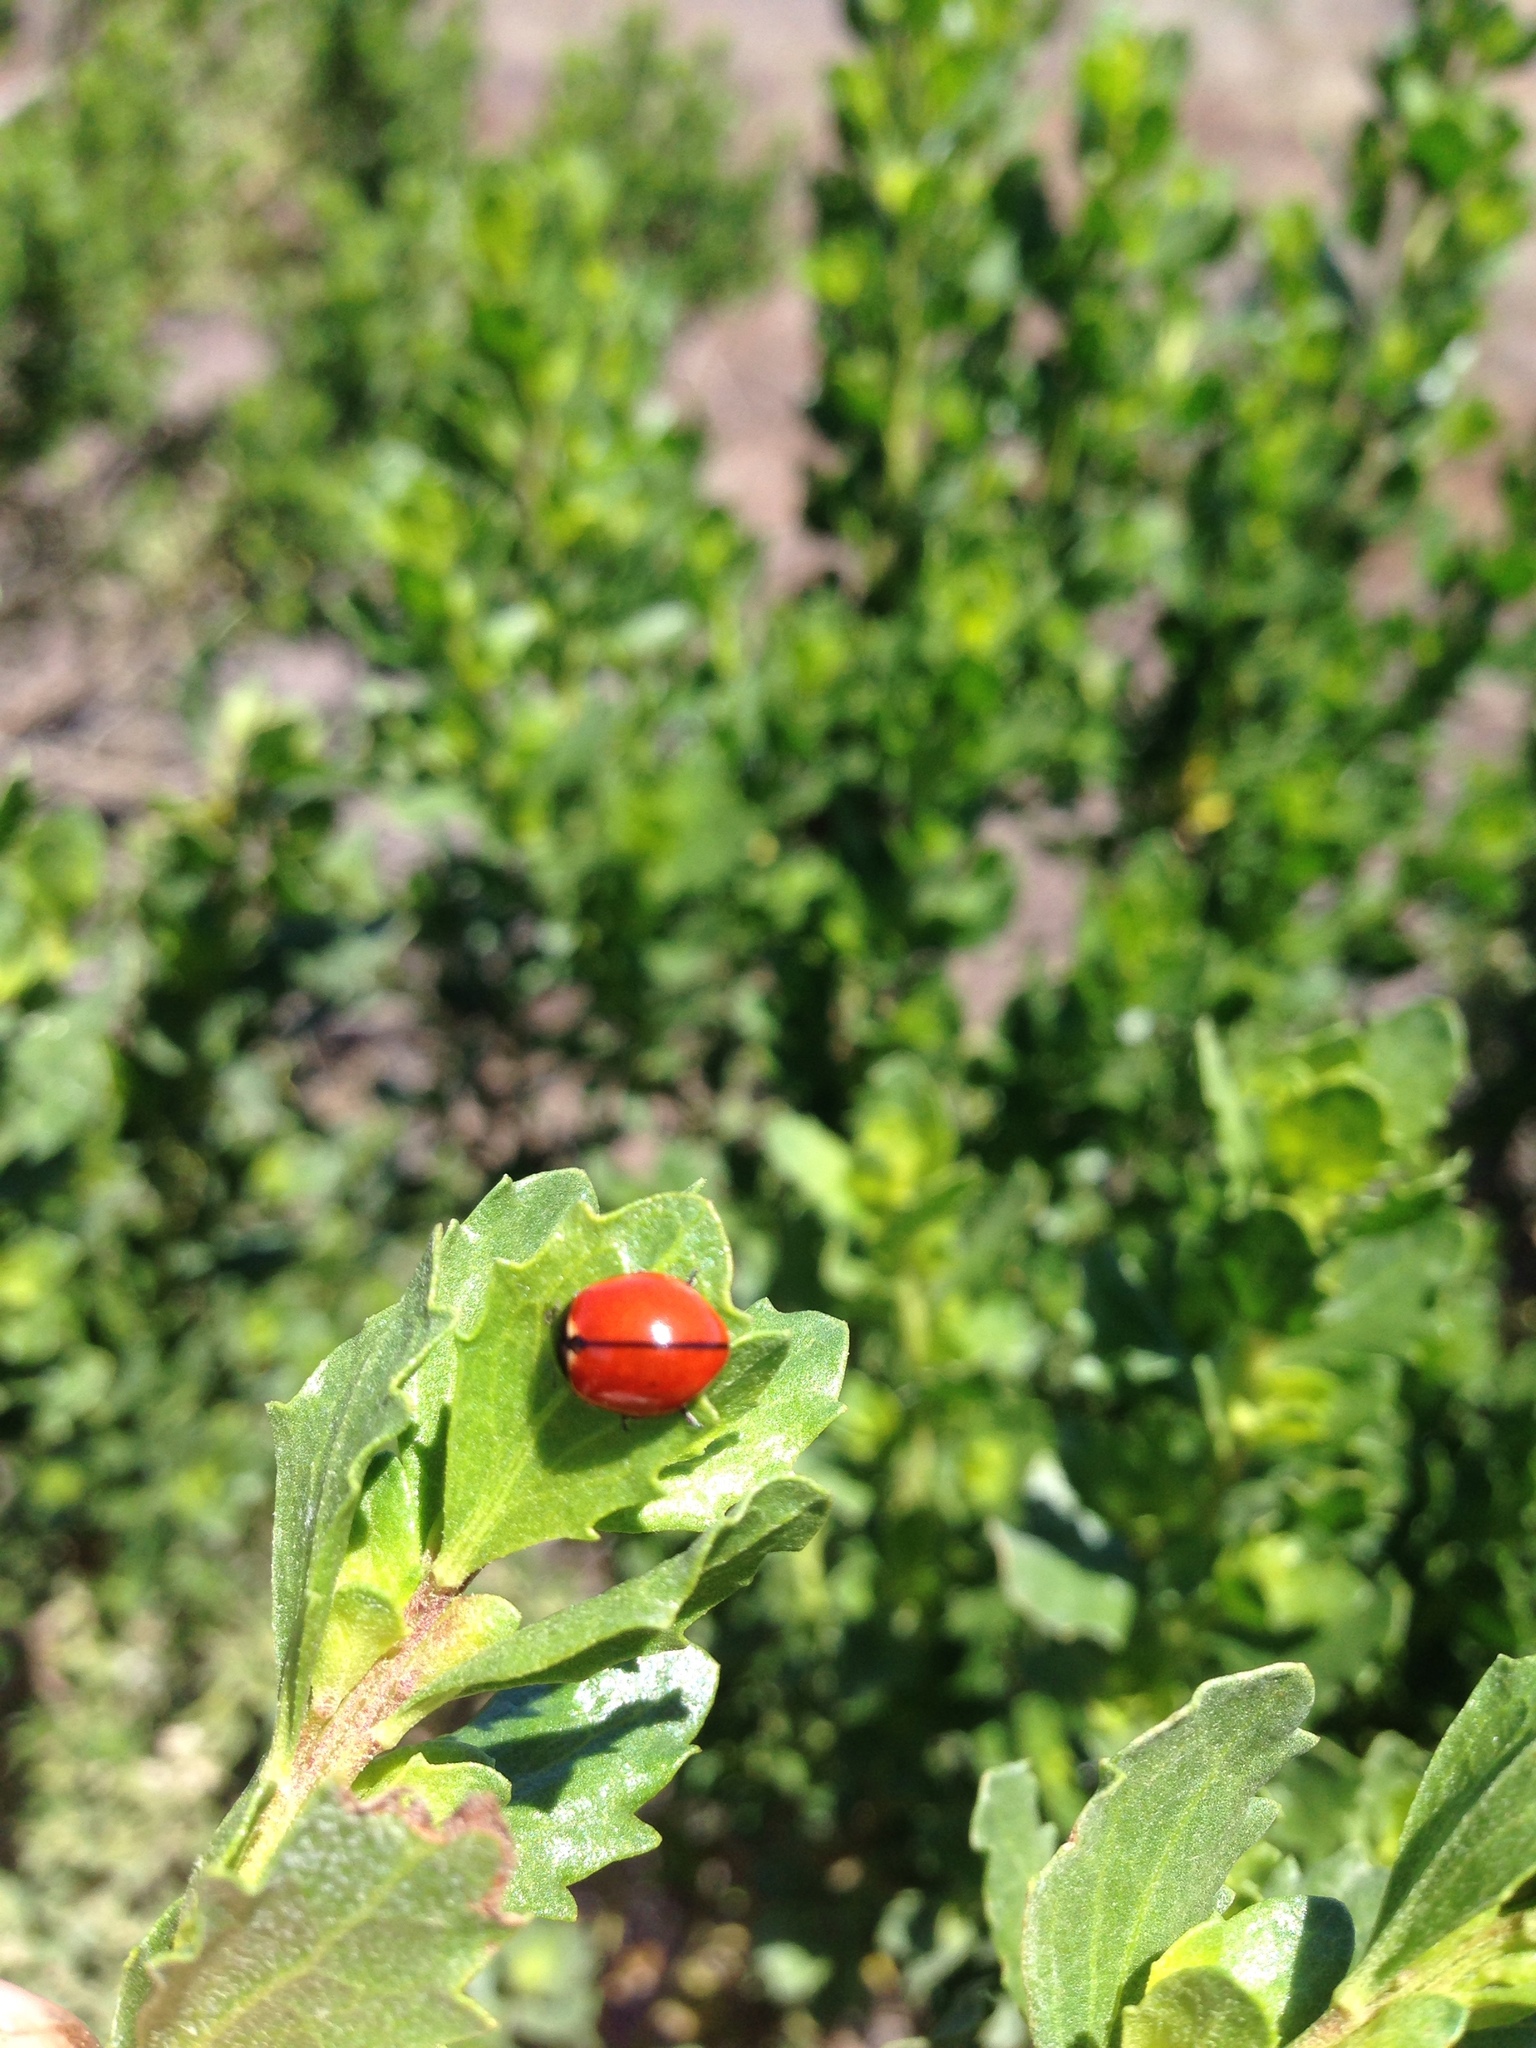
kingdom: Animalia
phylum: Arthropoda
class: Insecta
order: Coleoptera
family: Coccinellidae
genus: Coccinella
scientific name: Coccinella californica
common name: Lady beetle
